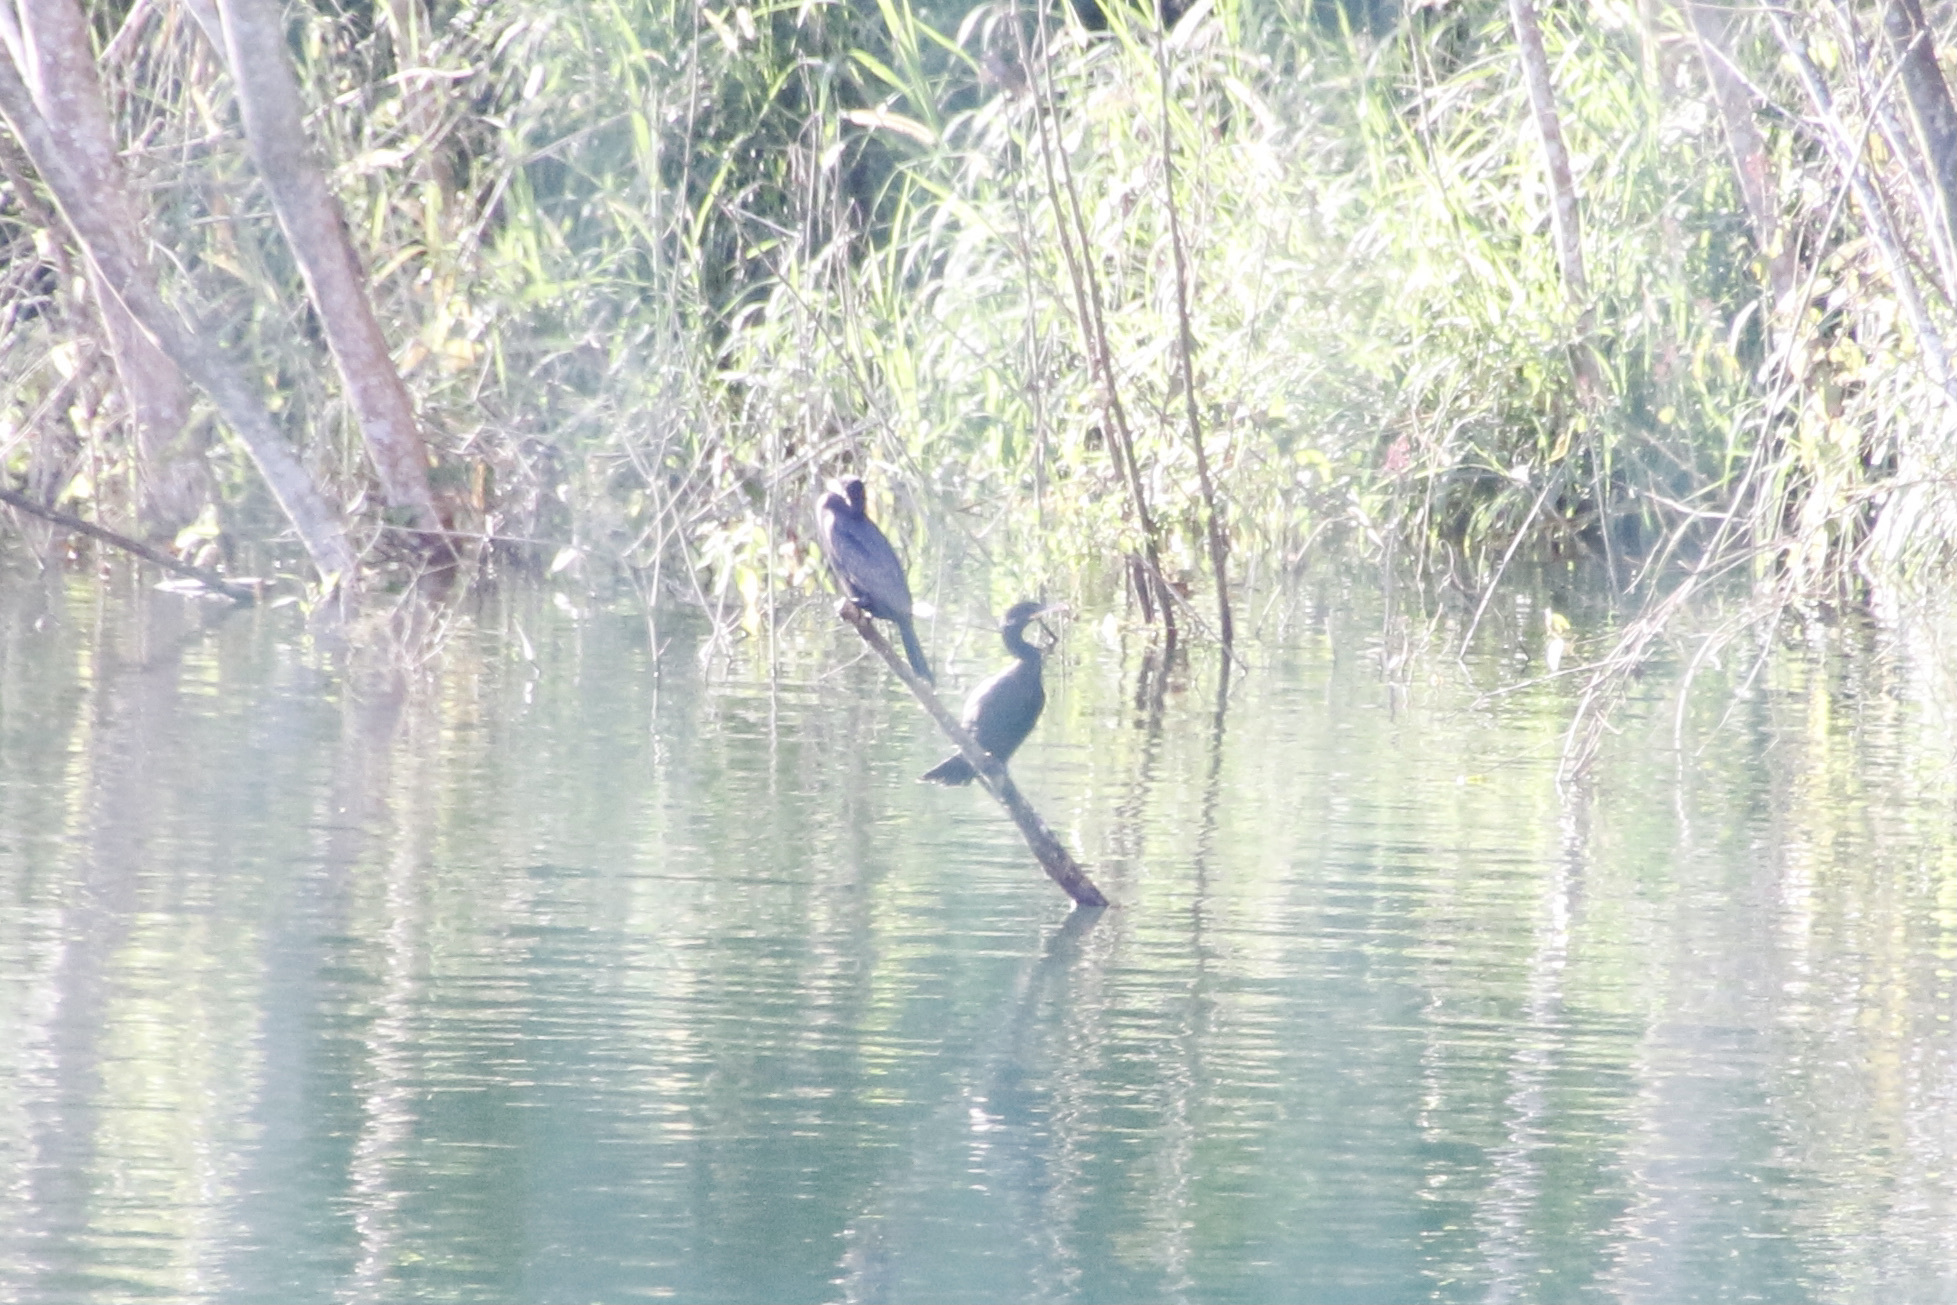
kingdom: Animalia
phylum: Chordata
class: Aves
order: Suliformes
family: Phalacrocoracidae
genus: Phalacrocorax
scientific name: Phalacrocorax brasilianus
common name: Neotropic cormorant
